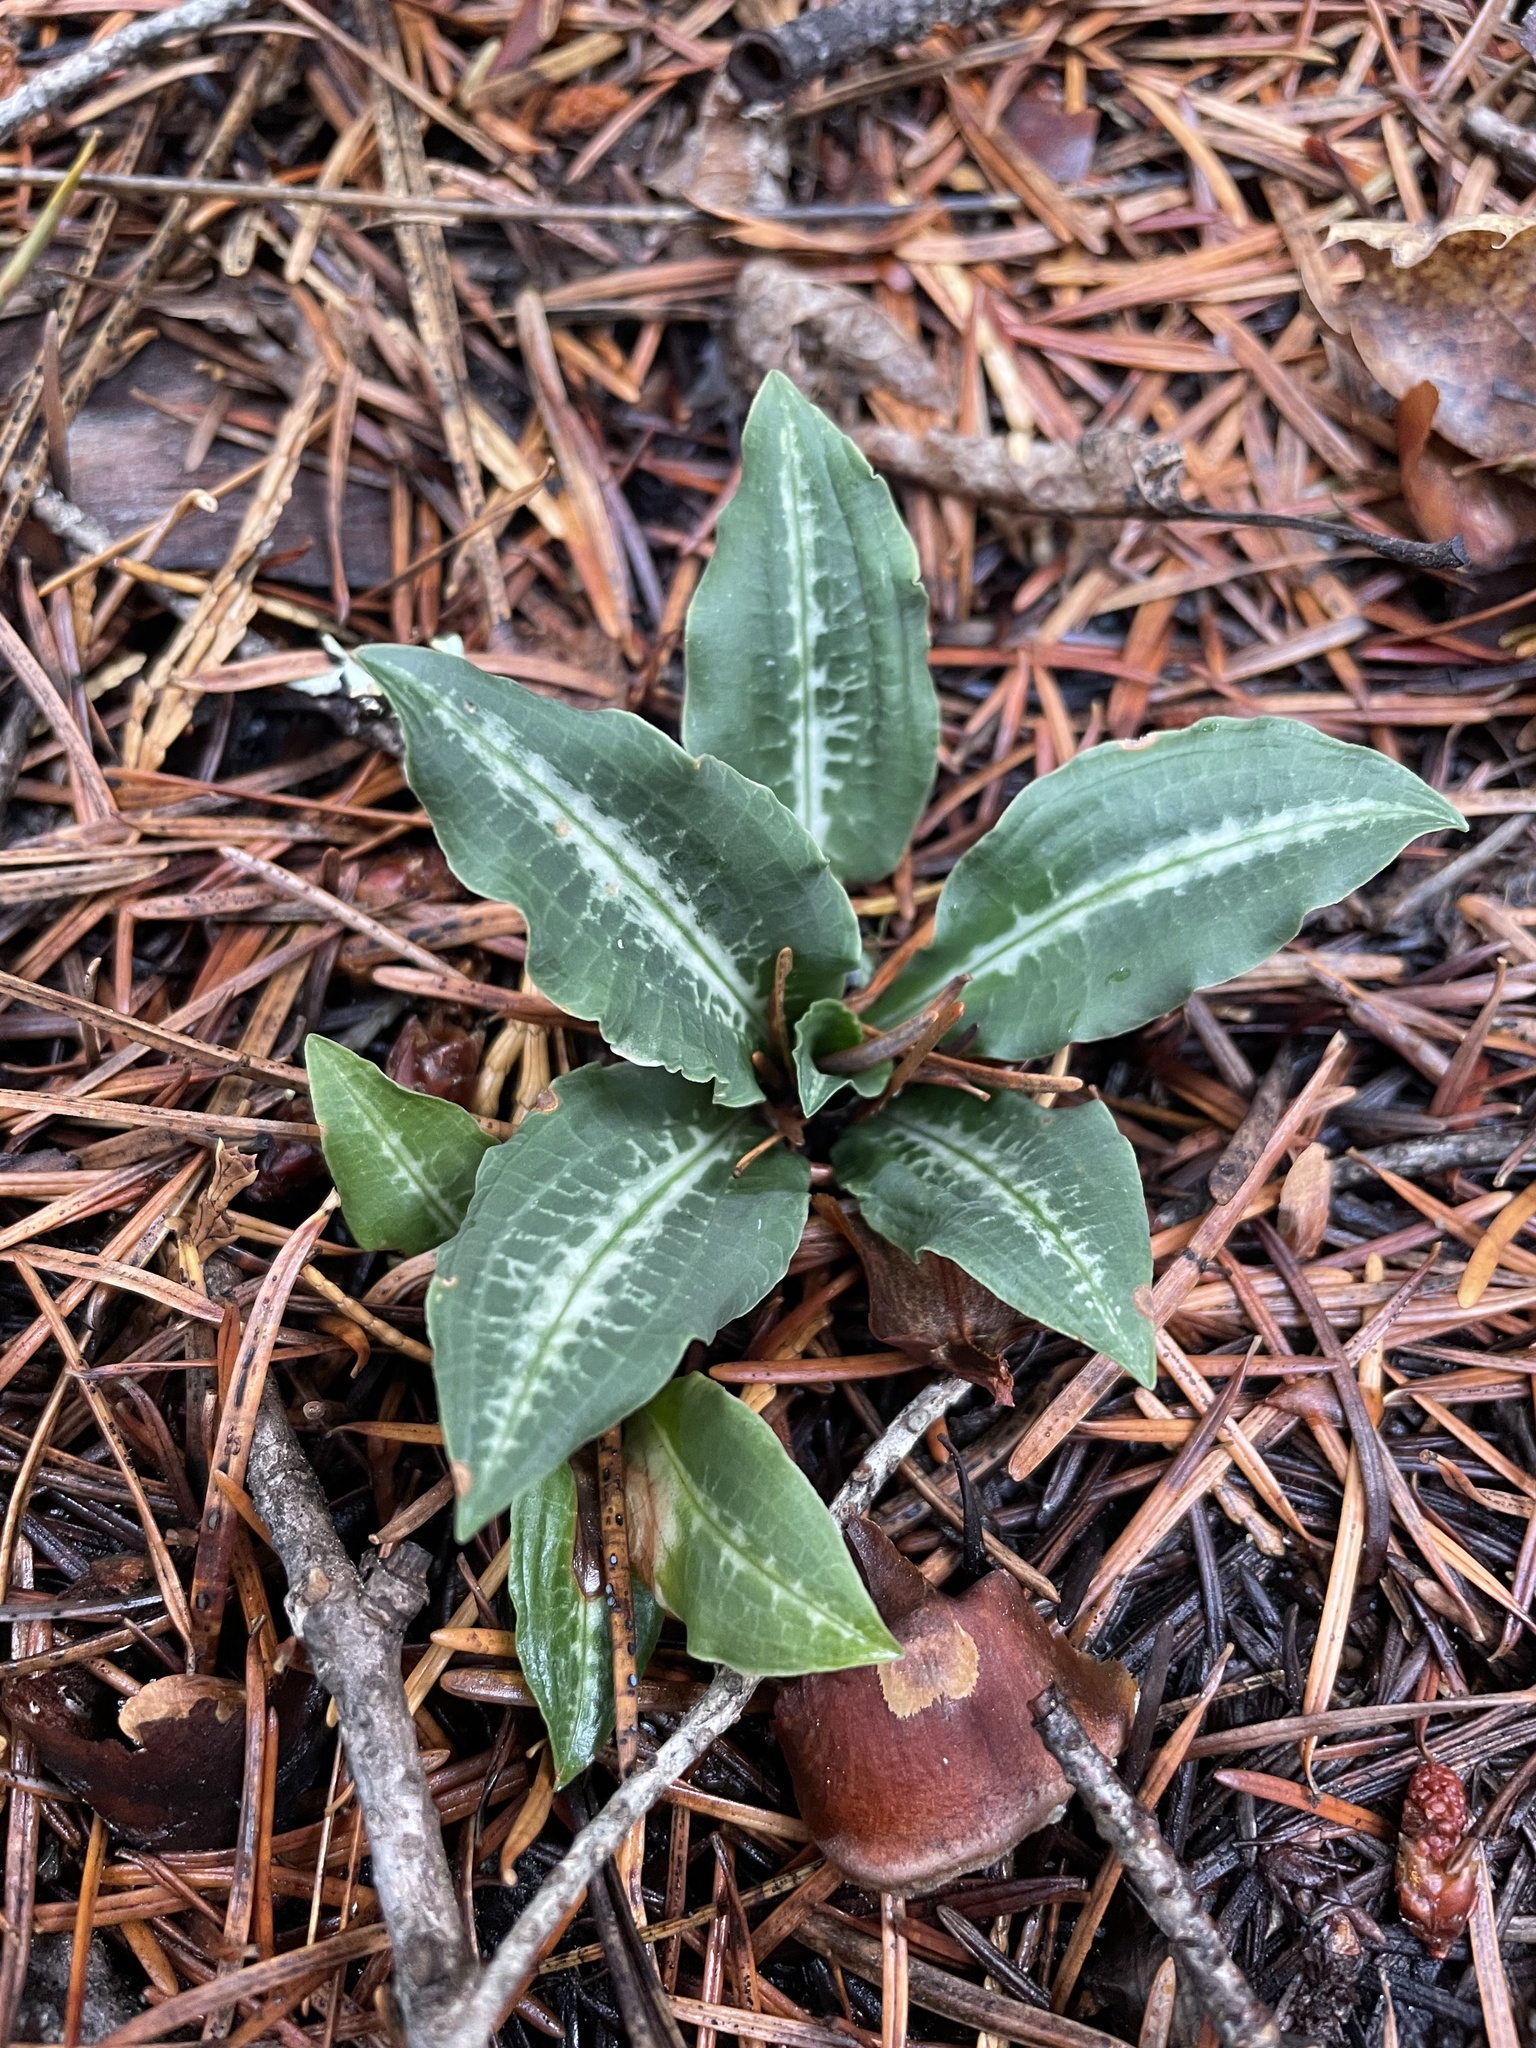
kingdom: Plantae
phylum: Tracheophyta
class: Liliopsida
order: Asparagales
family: Orchidaceae
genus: Goodyera
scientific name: Goodyera oblongifolia
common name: Giant rattlesnake-plantain
